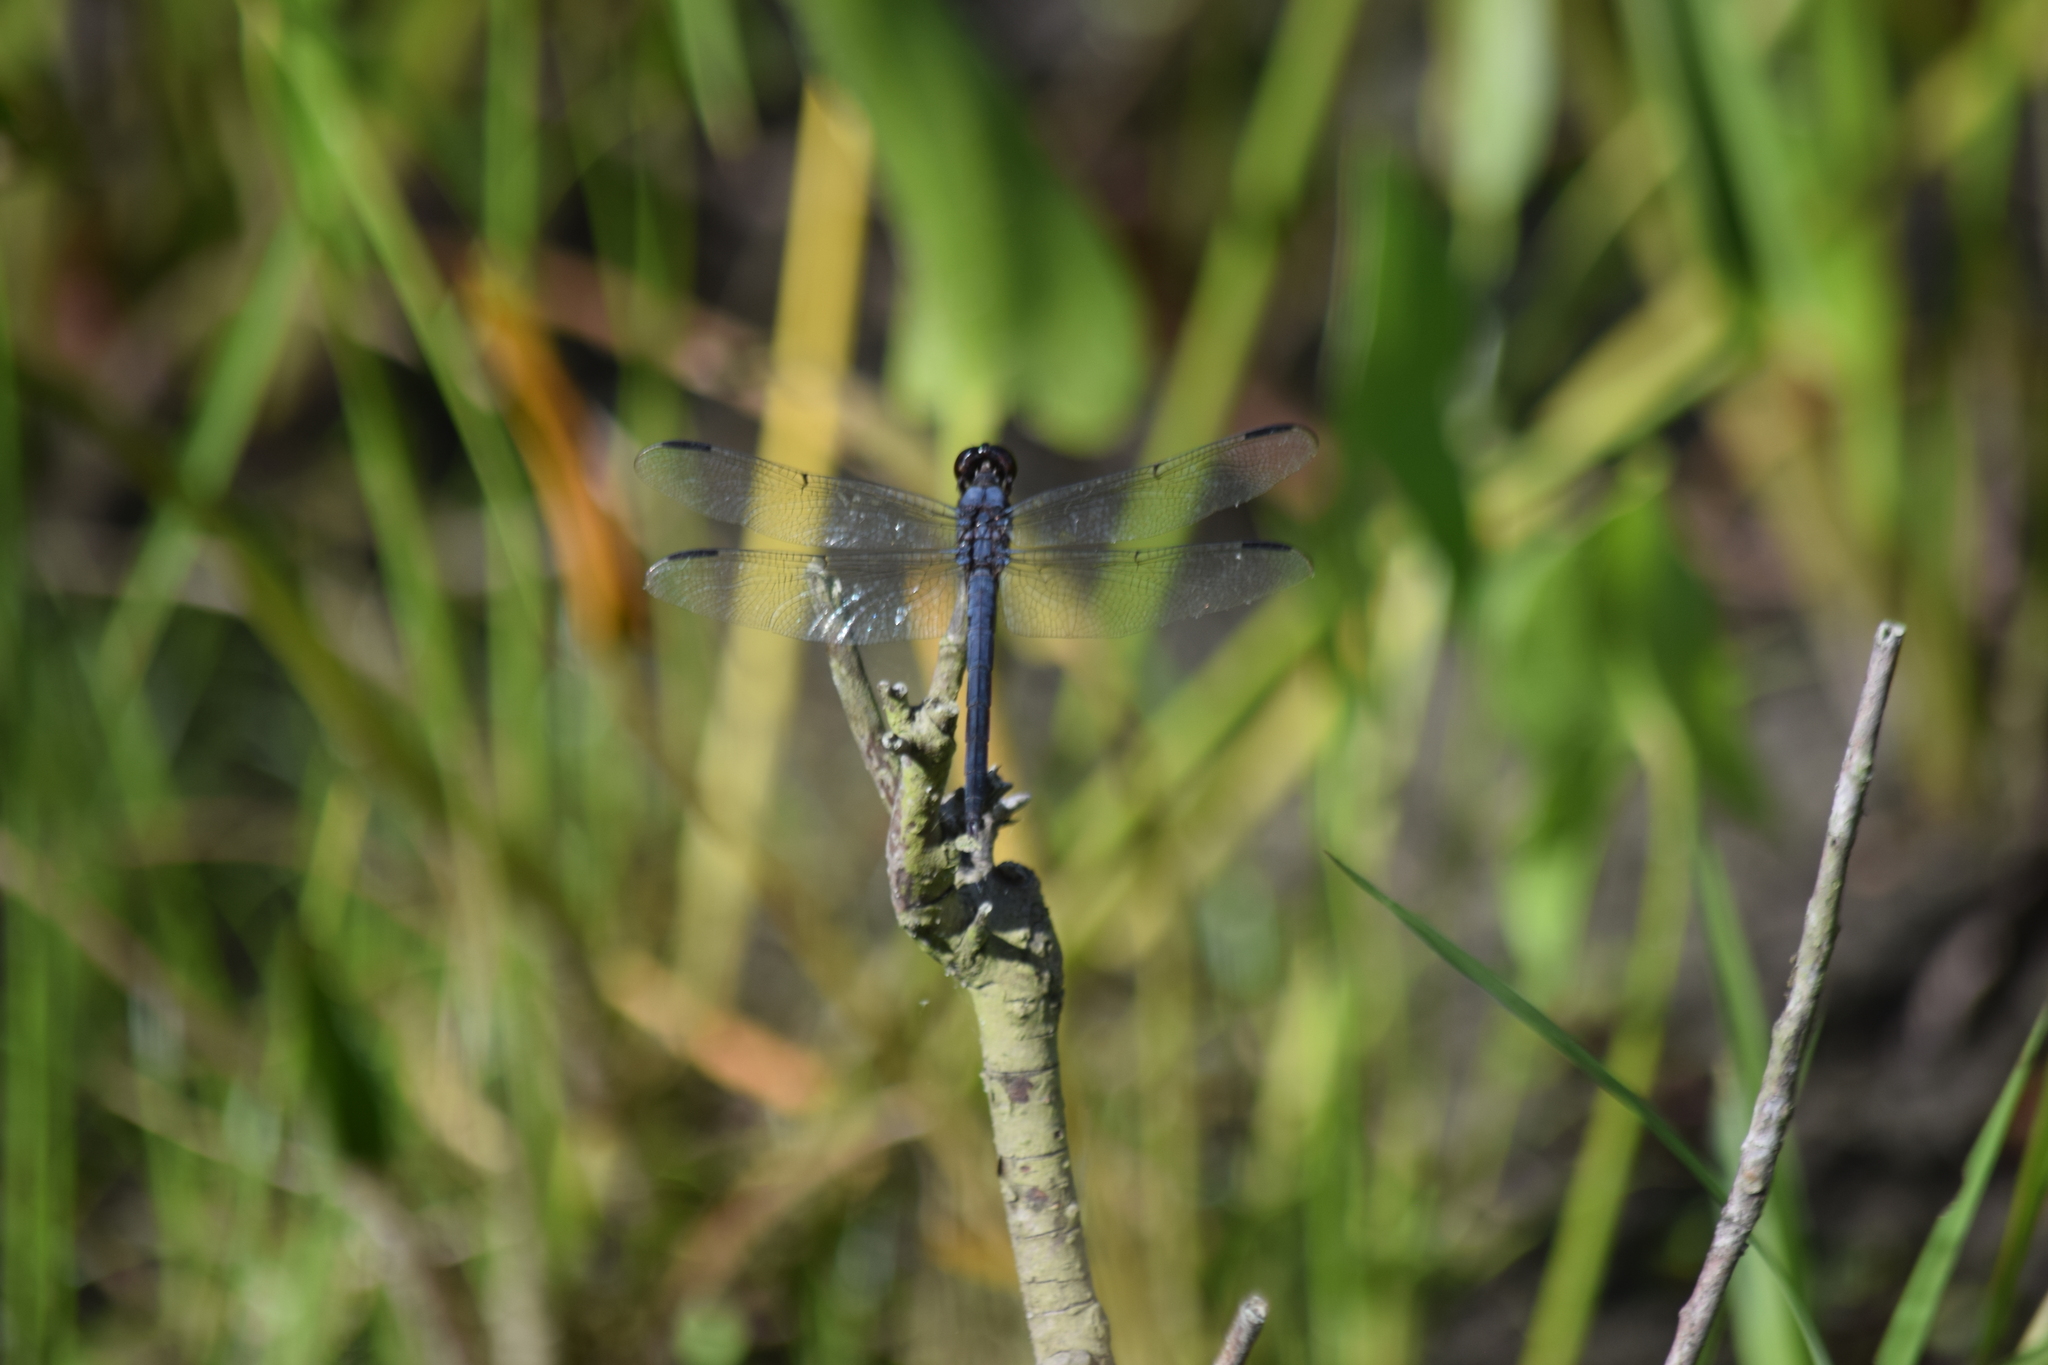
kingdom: Animalia
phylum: Arthropoda
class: Insecta
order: Odonata
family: Libellulidae
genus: Libellula
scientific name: Libellula incesta
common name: Slaty skimmer
